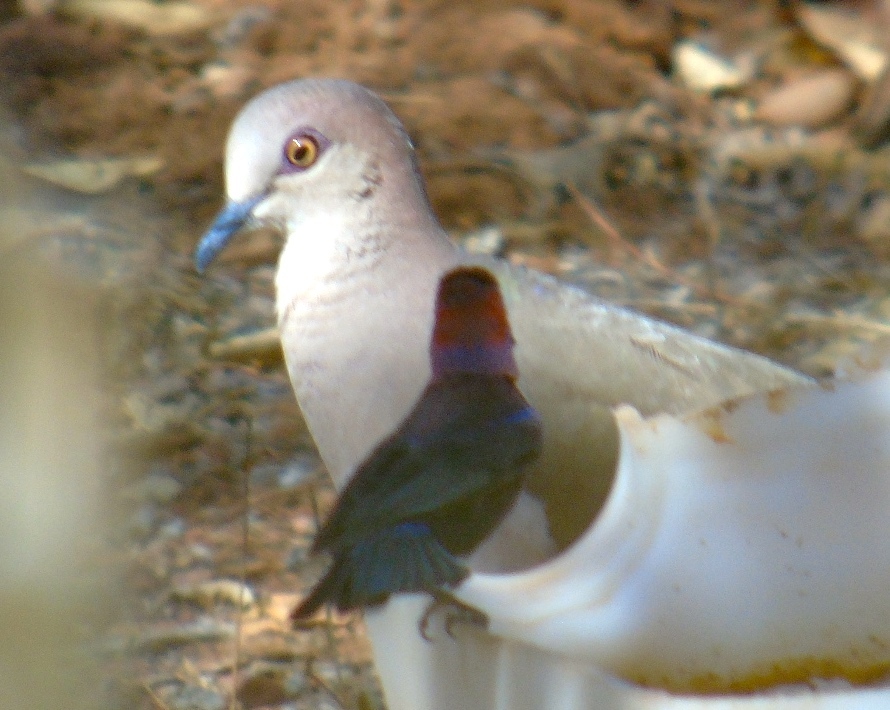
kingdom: Animalia
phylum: Chordata
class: Aves
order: Columbiformes
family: Columbidae
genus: Leptotila
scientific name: Leptotila verreauxi
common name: White-tipped dove
